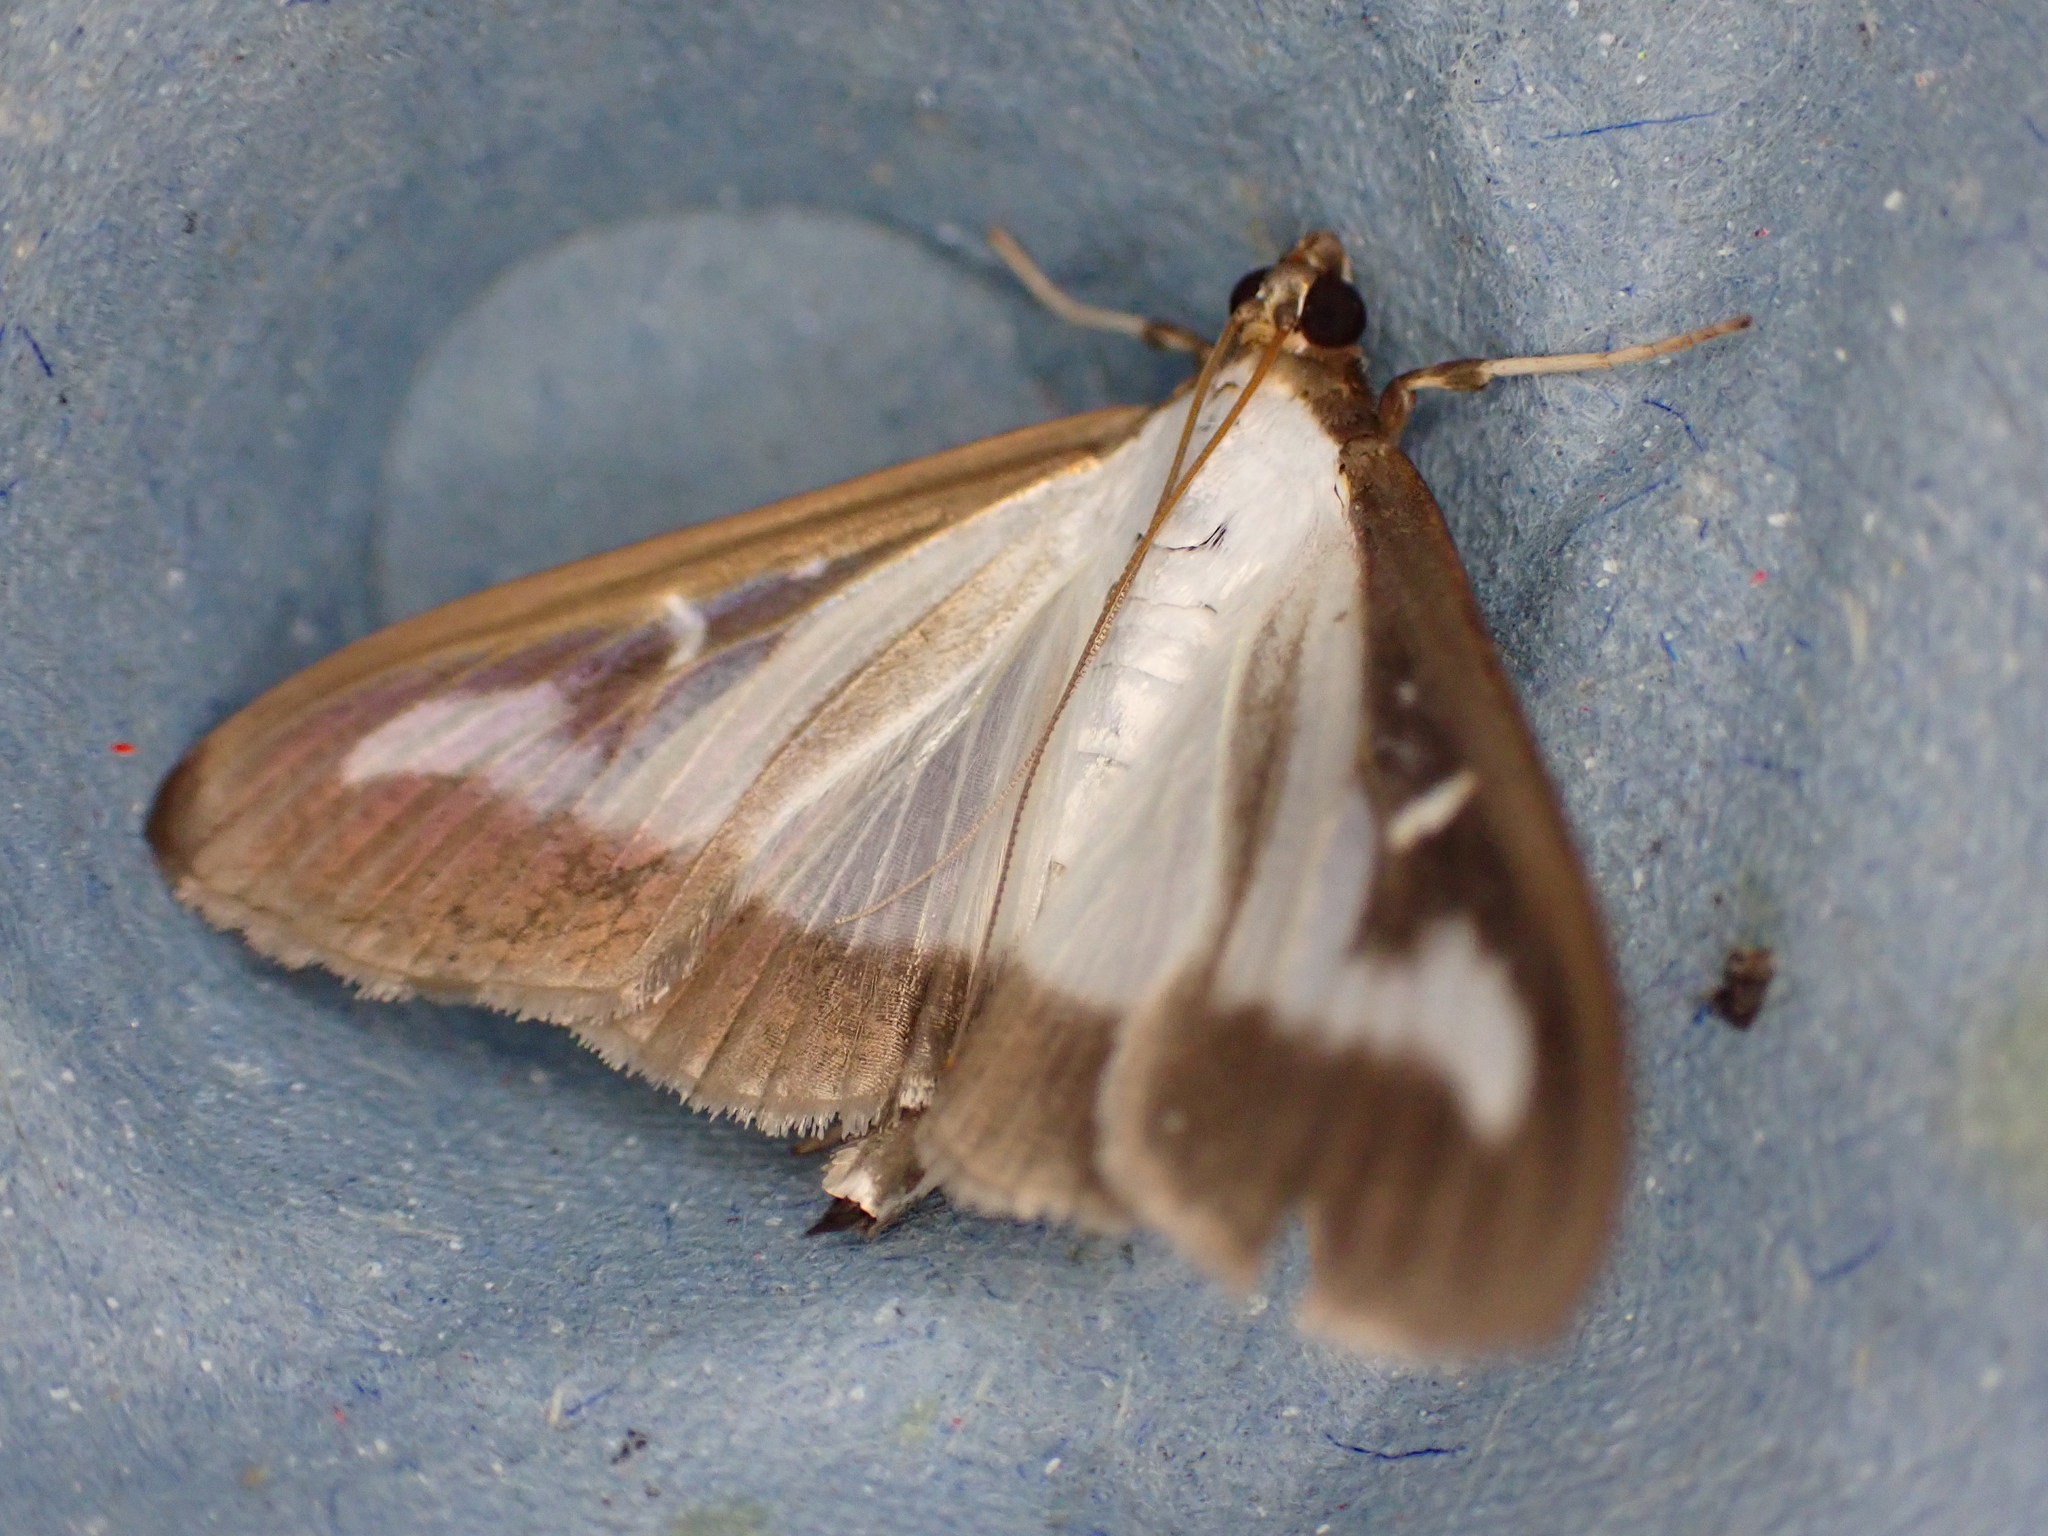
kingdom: Animalia
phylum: Arthropoda
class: Insecta
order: Lepidoptera
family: Crambidae
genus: Cydalima
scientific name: Cydalima perspectalis
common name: Box tree moth
